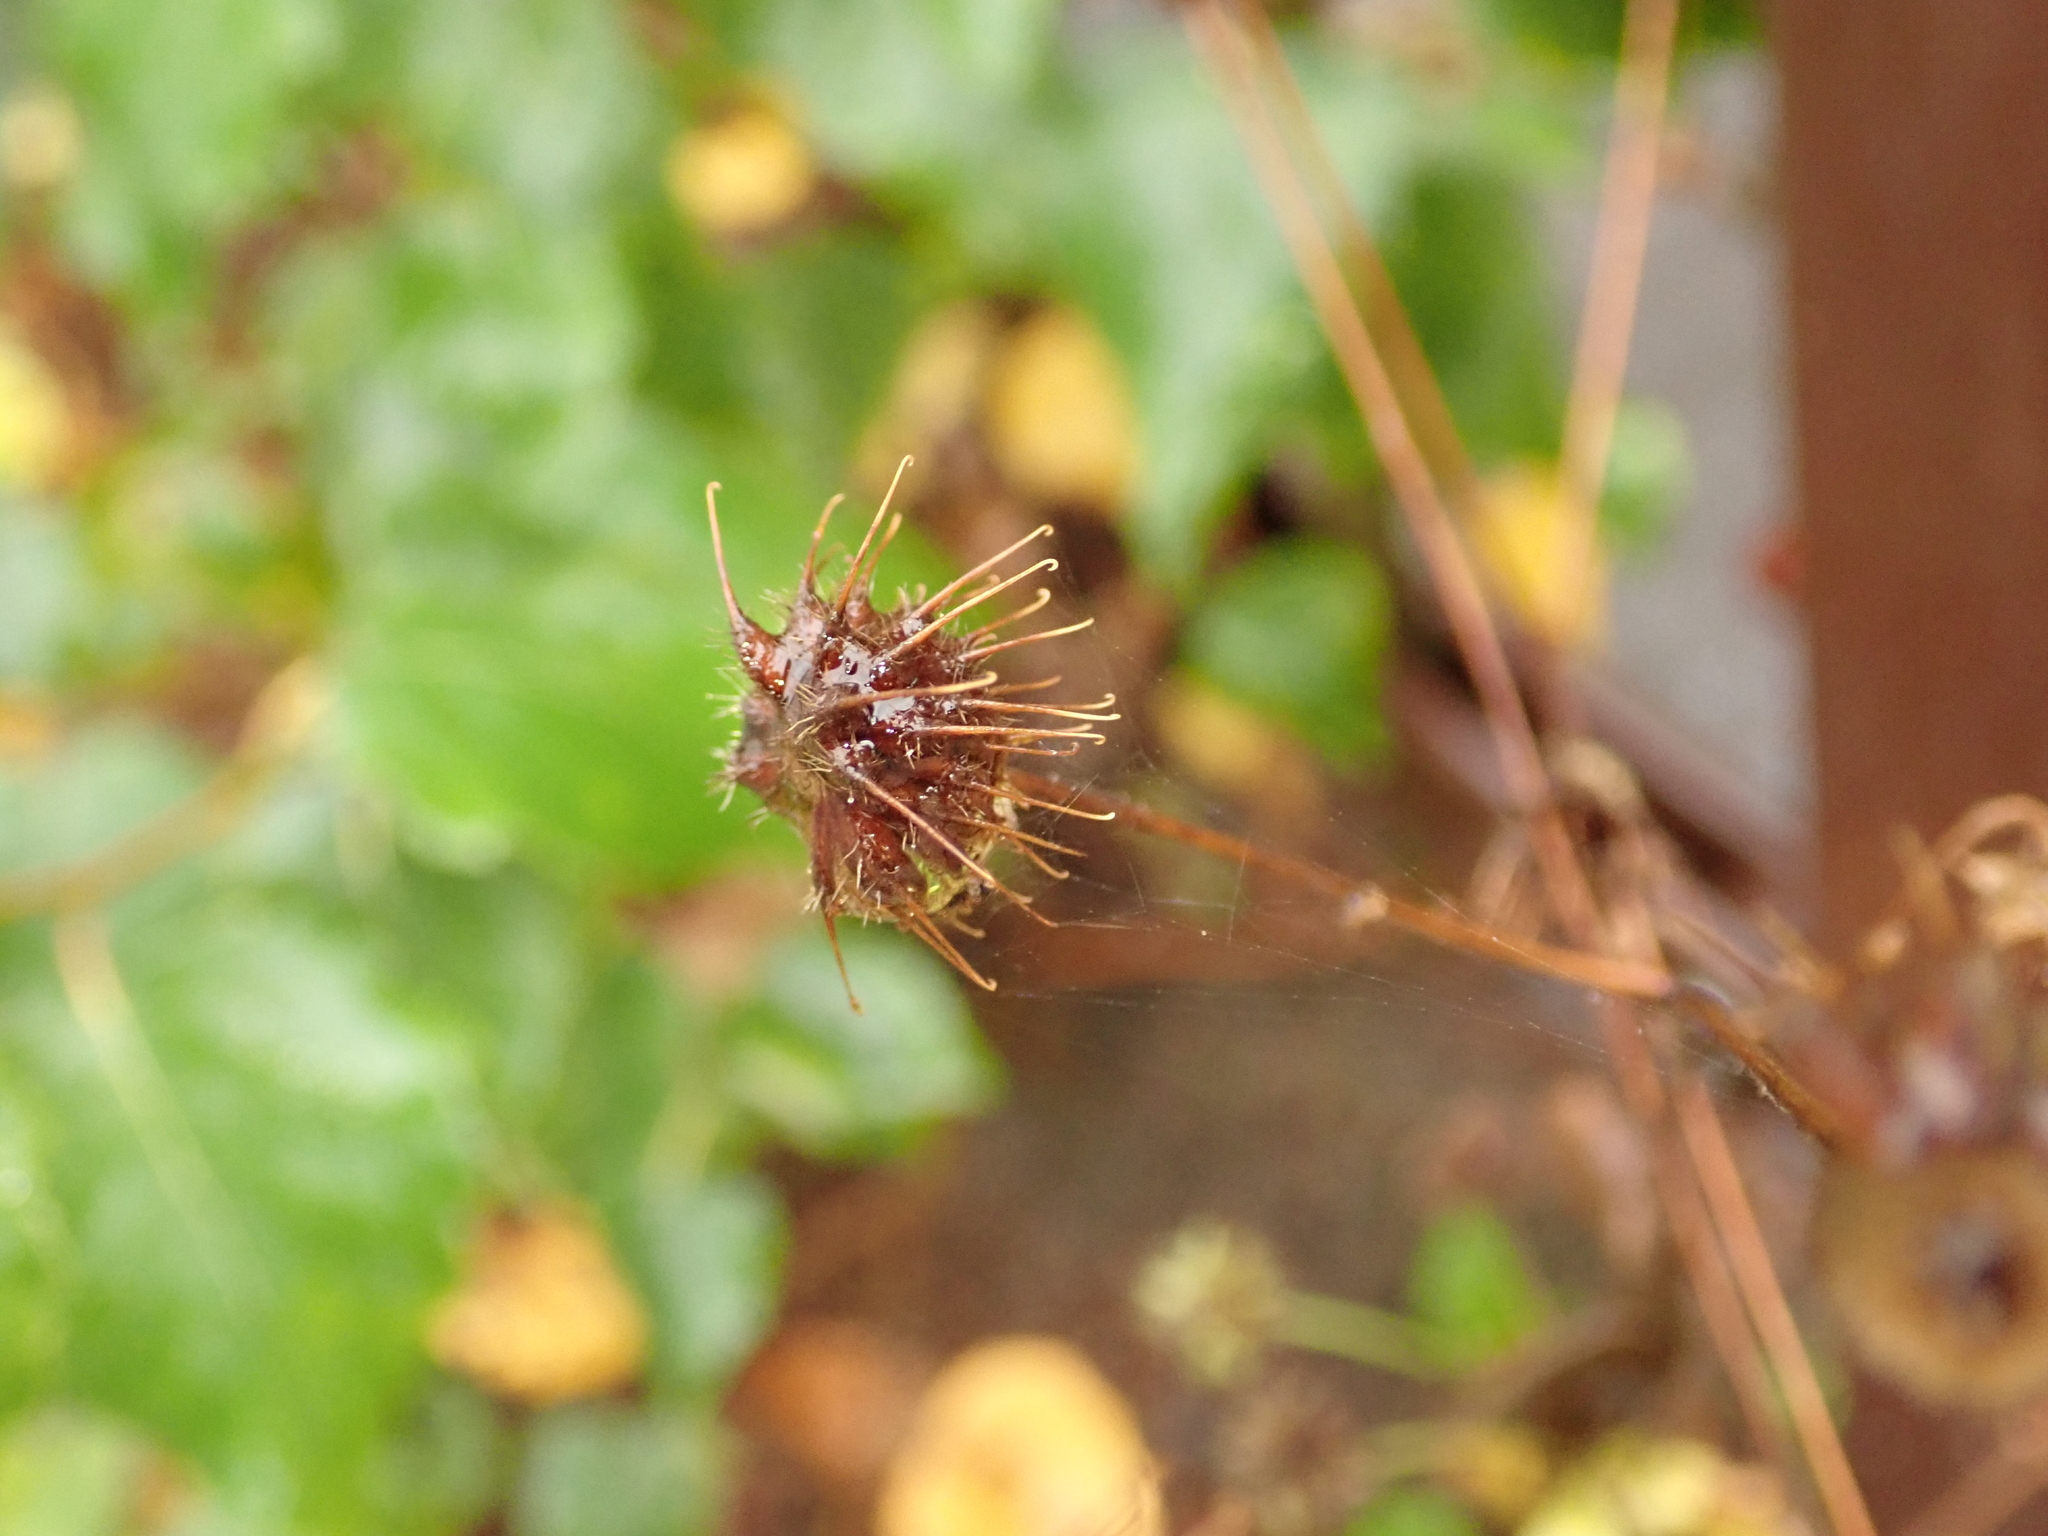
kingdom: Plantae
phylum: Tracheophyta
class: Magnoliopsida
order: Rosales
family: Rosaceae
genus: Geum
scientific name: Geum urbanum
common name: Wood avens
